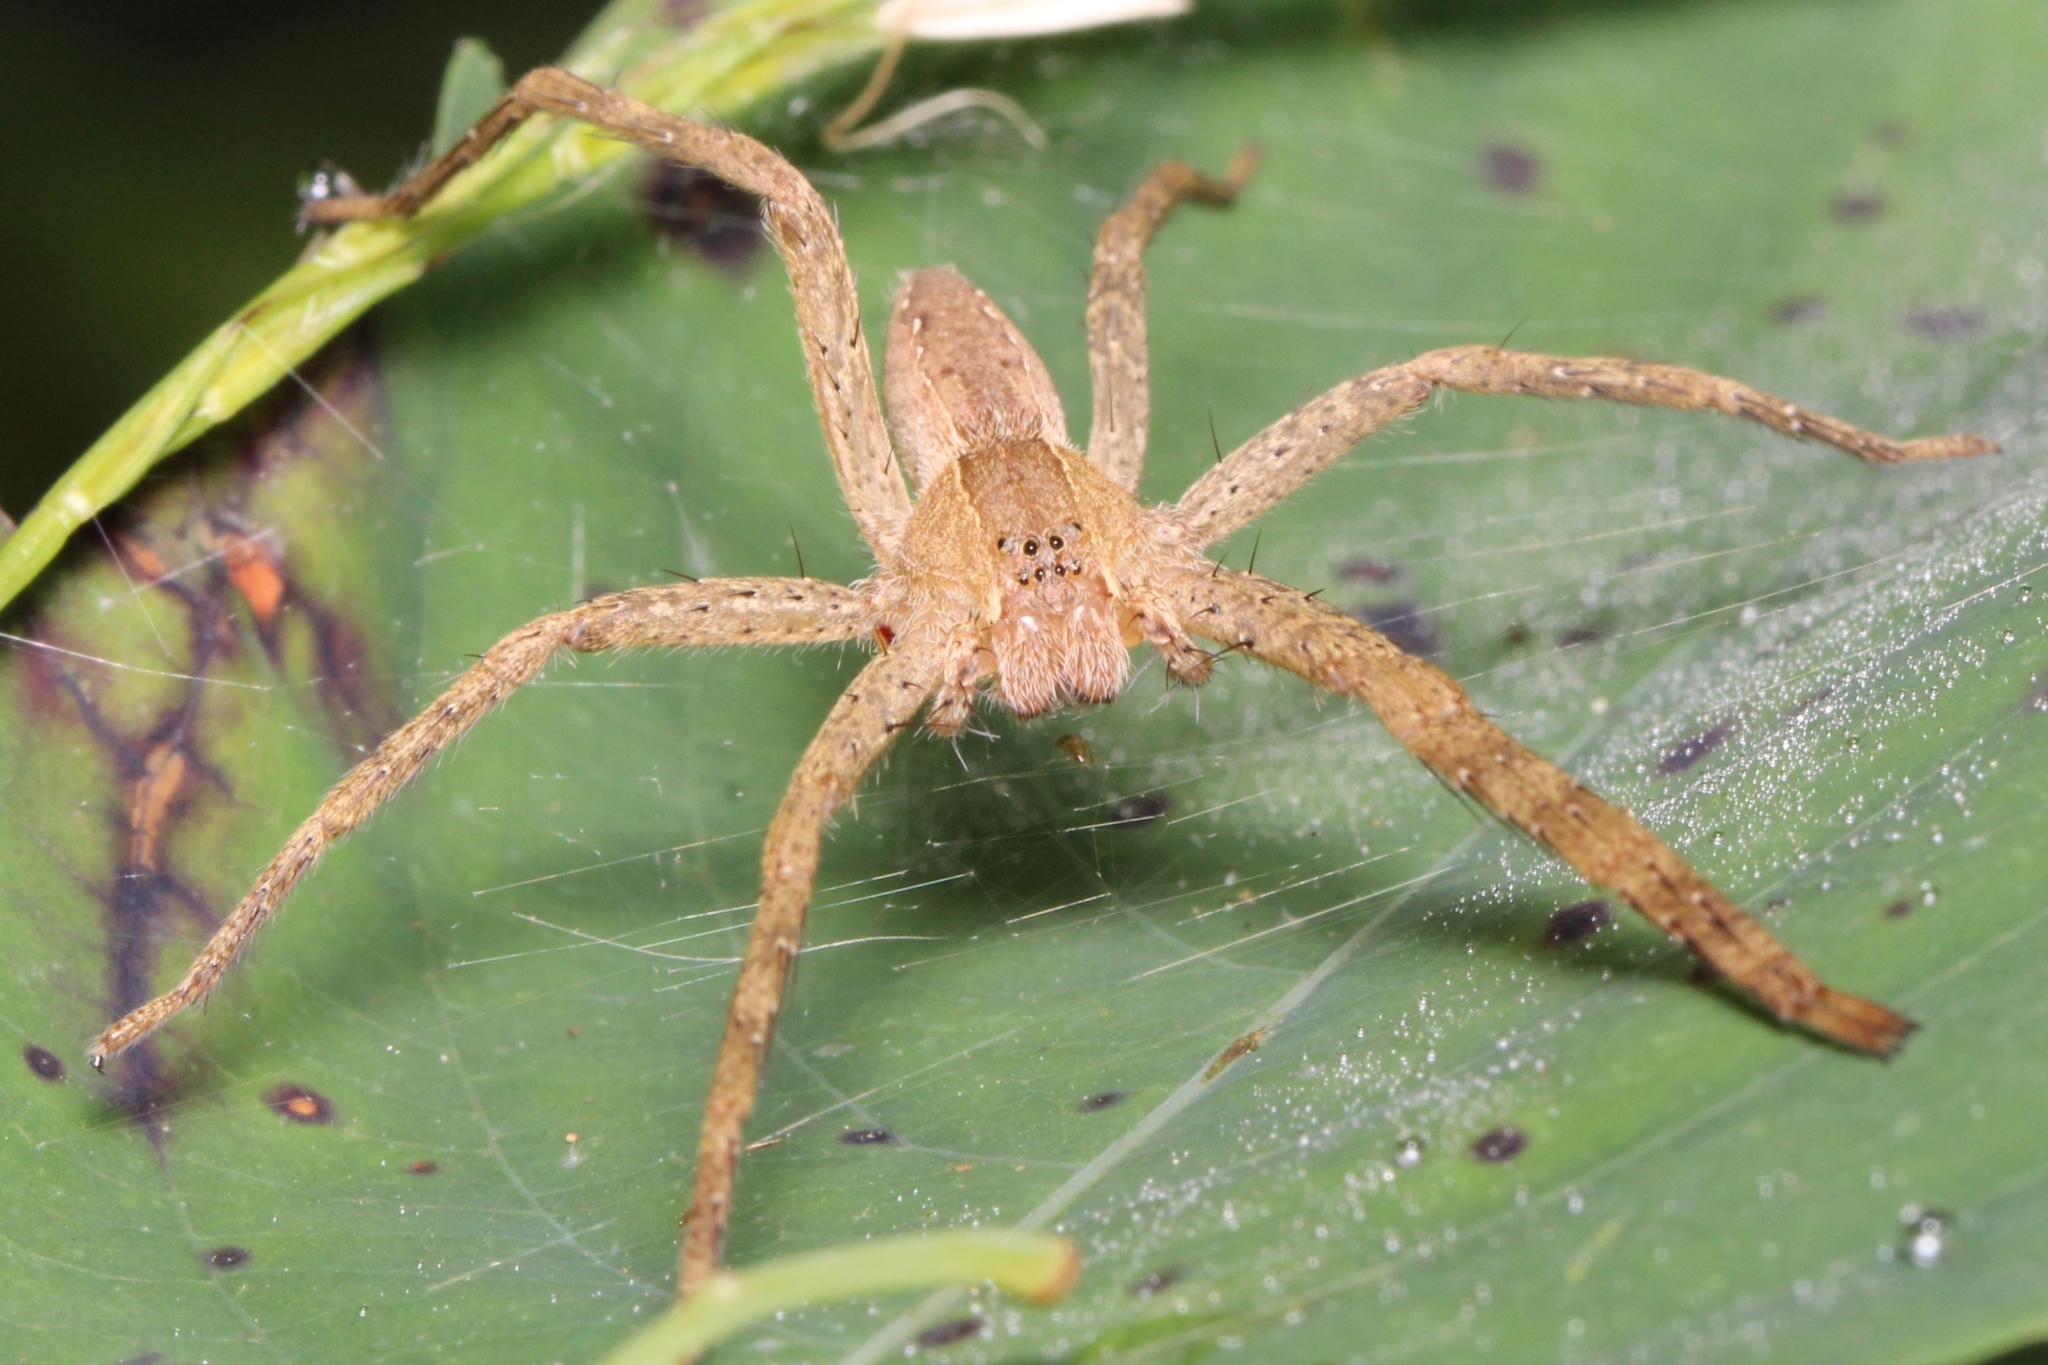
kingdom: Animalia
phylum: Arthropoda
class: Arachnida
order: Araneae
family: Pisauridae
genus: Pisaurina
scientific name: Pisaurina mira
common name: American nursery web spider
